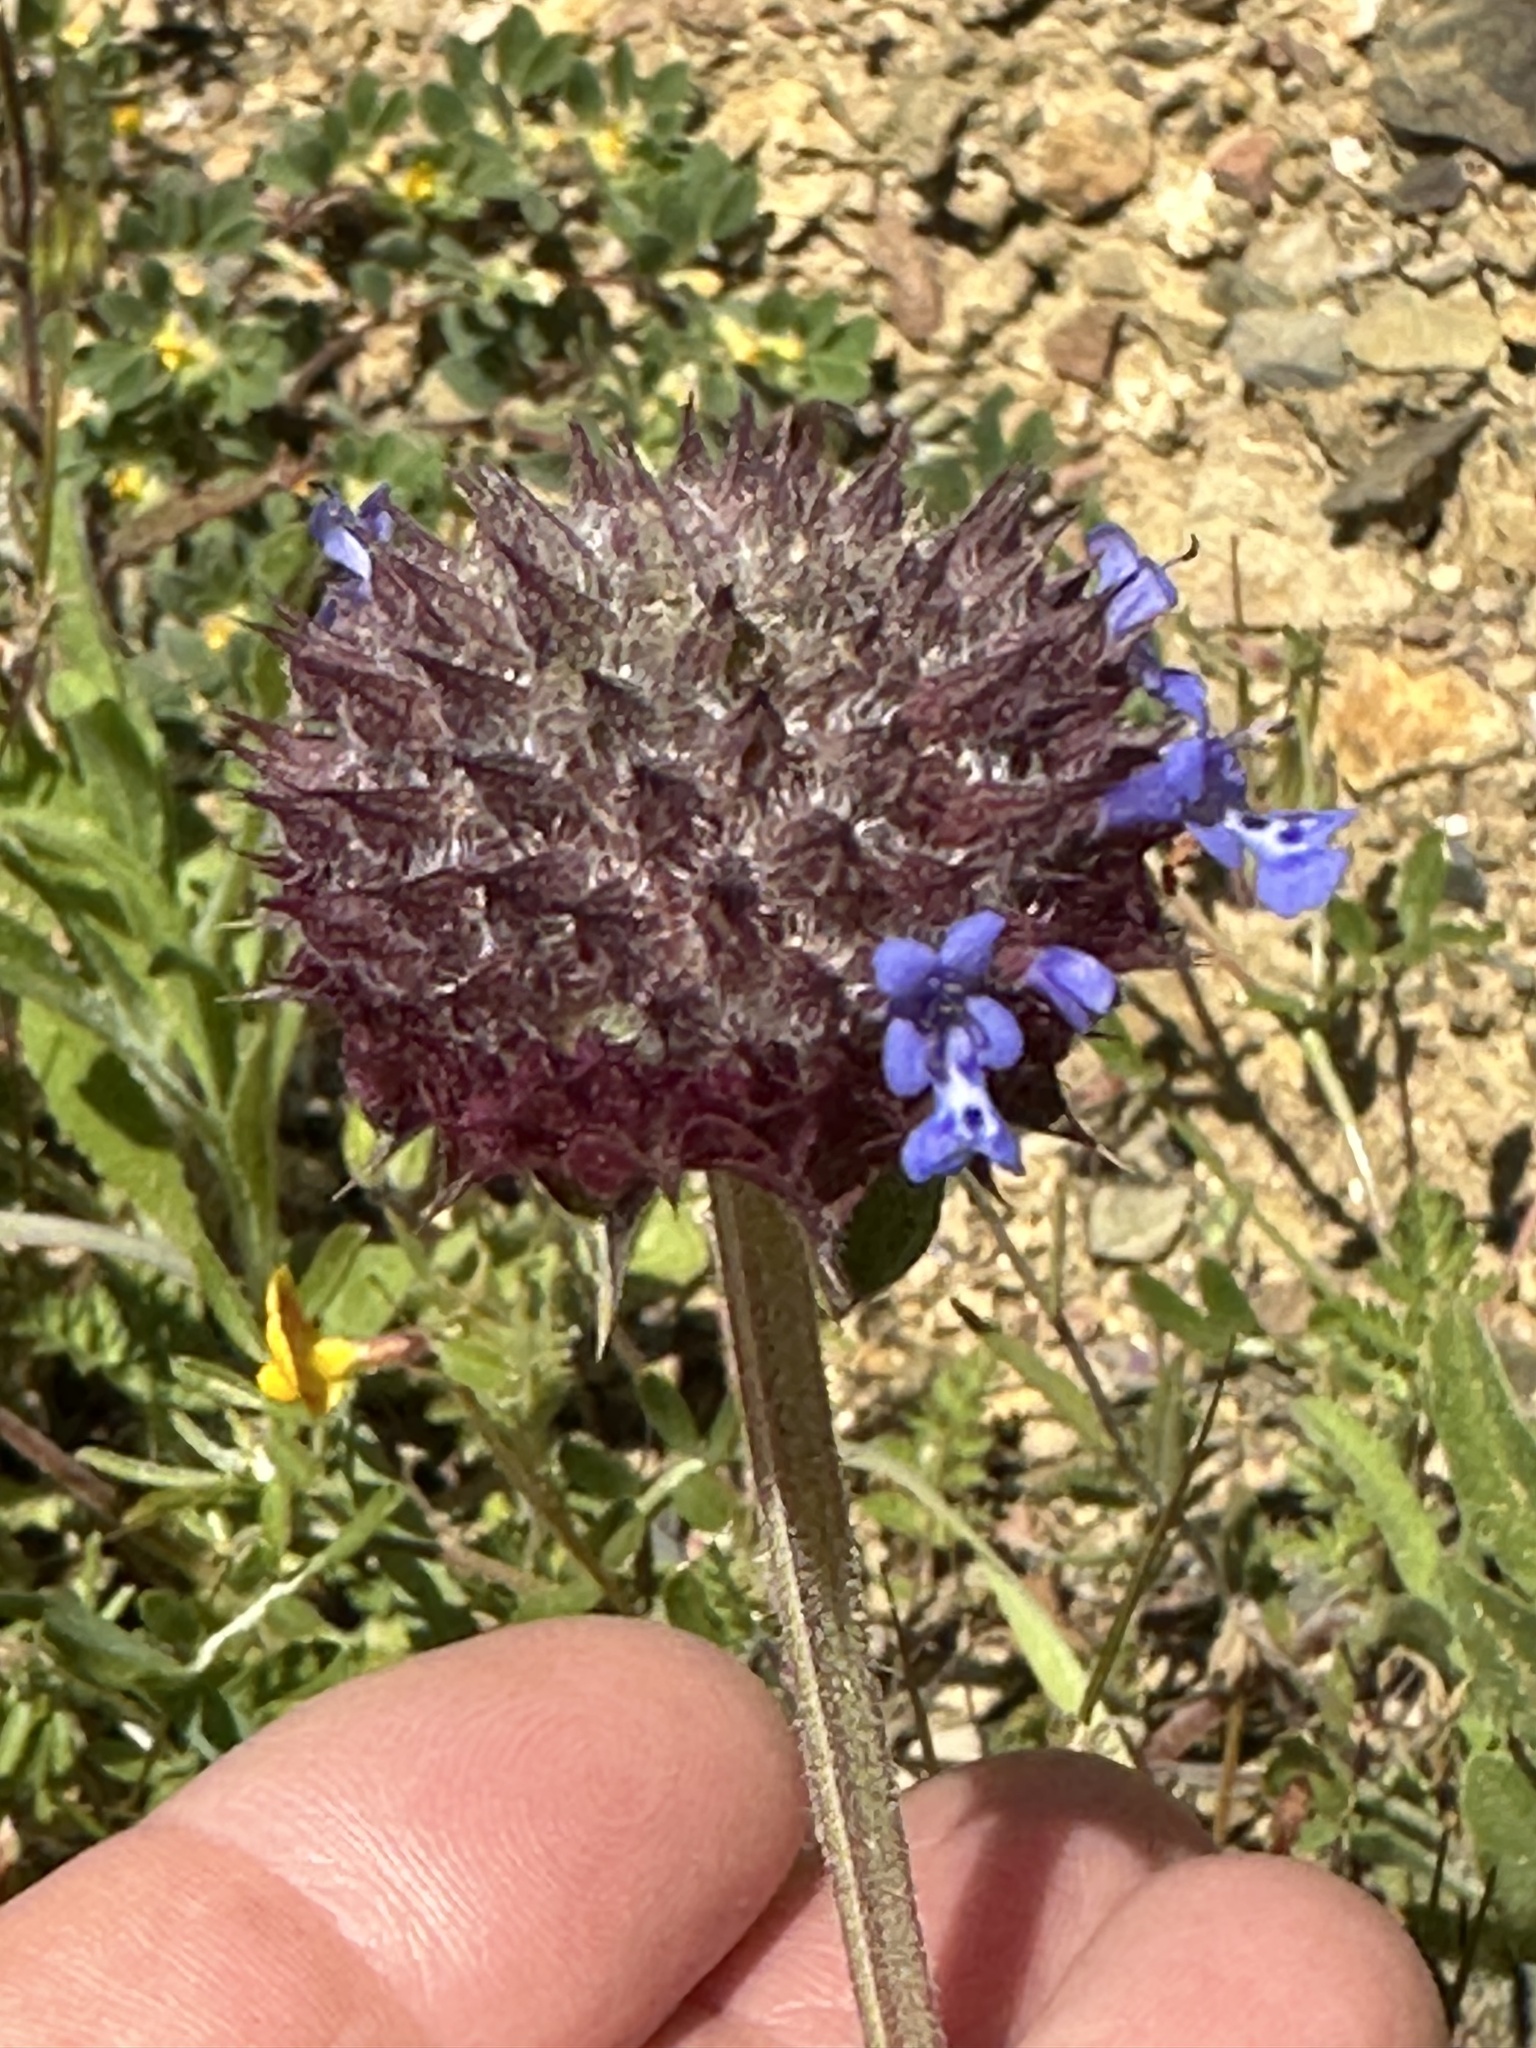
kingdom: Plantae
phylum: Tracheophyta
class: Magnoliopsida
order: Lamiales
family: Lamiaceae
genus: Salvia
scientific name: Salvia columbariae
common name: Chia
